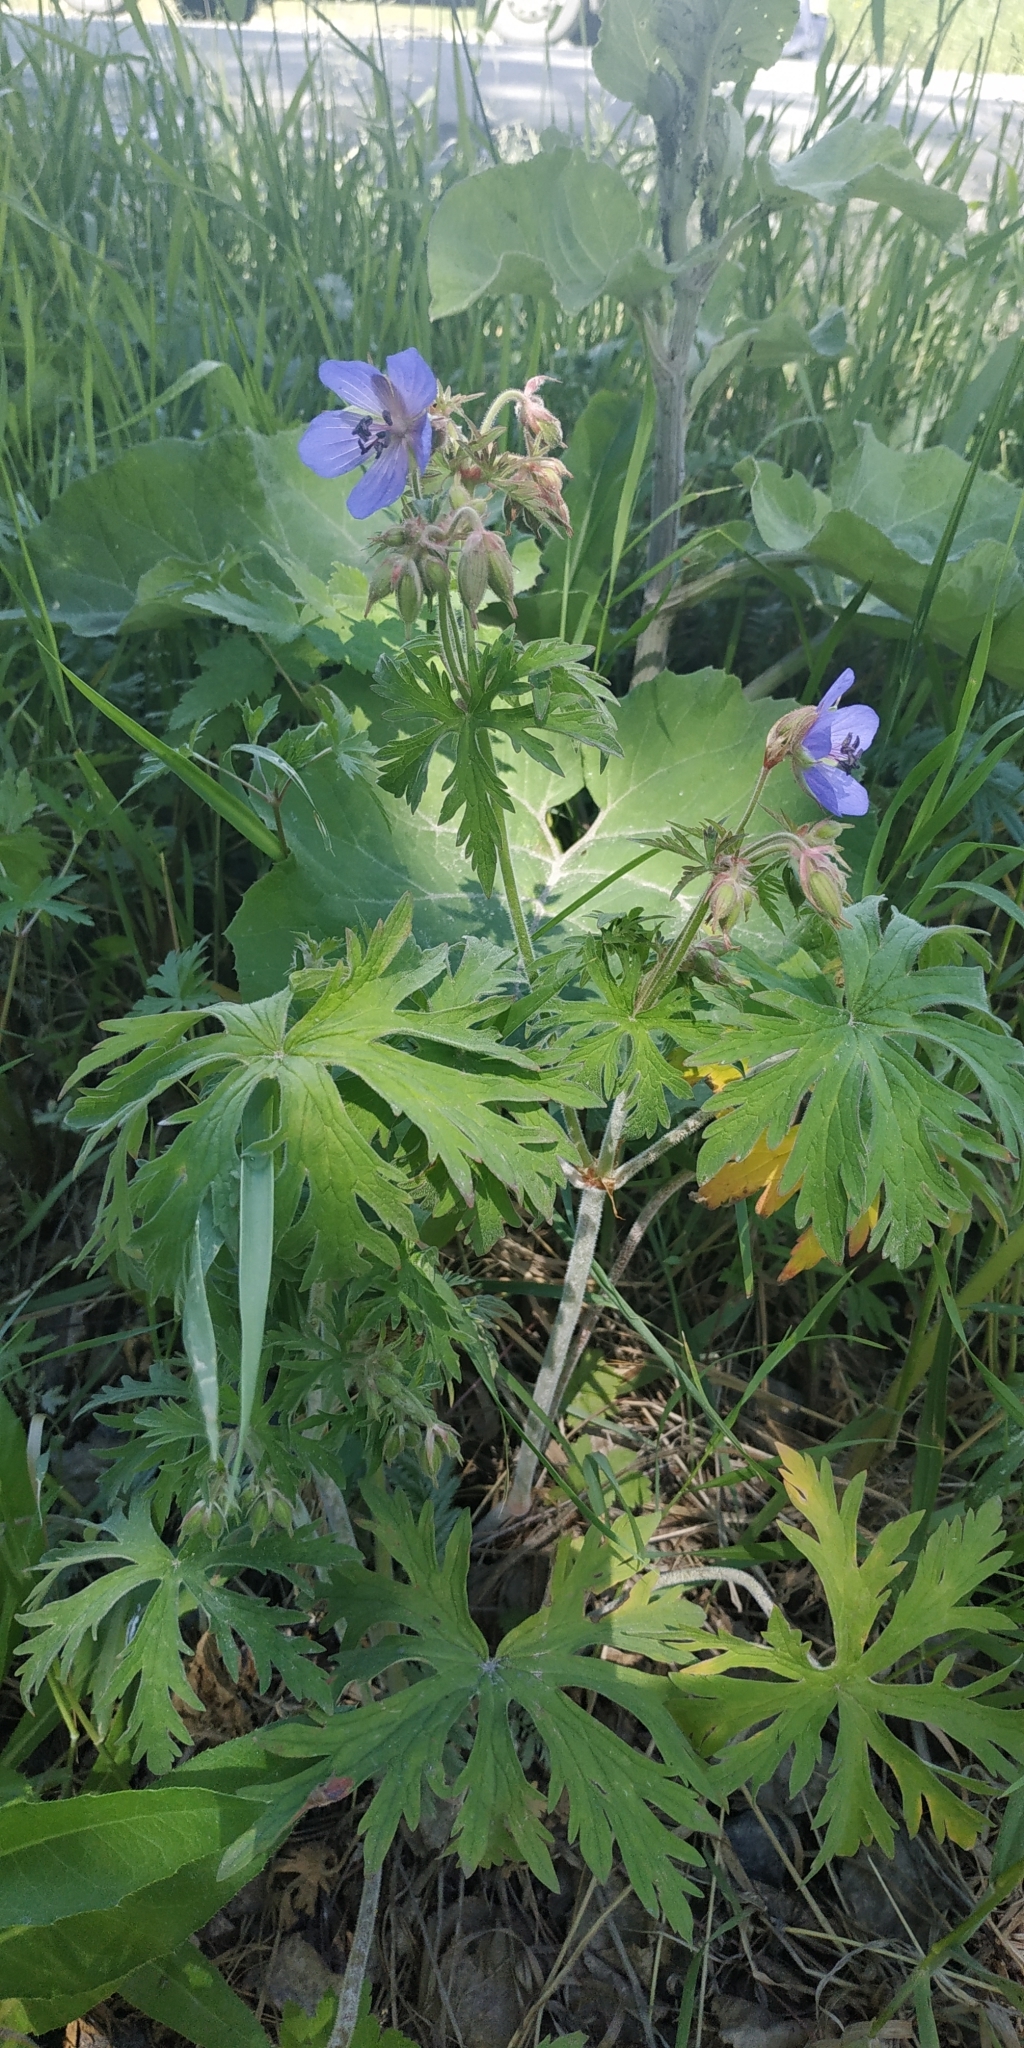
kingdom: Plantae
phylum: Tracheophyta
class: Magnoliopsida
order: Geraniales
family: Geraniaceae
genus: Geranium
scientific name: Geranium pratense
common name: Meadow crane's-bill
